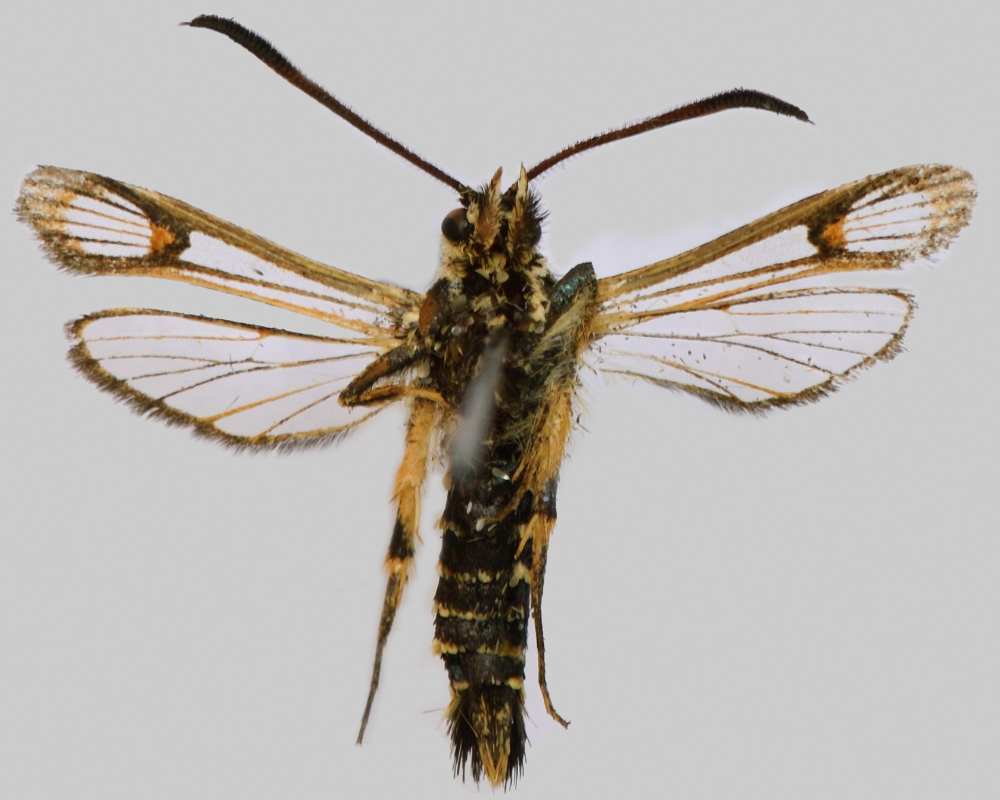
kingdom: Animalia
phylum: Arthropoda
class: Insecta
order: Lepidoptera
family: Sesiidae
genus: Bembecia
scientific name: Bembecia ichneumoniformis
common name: Six-belted clearwing
